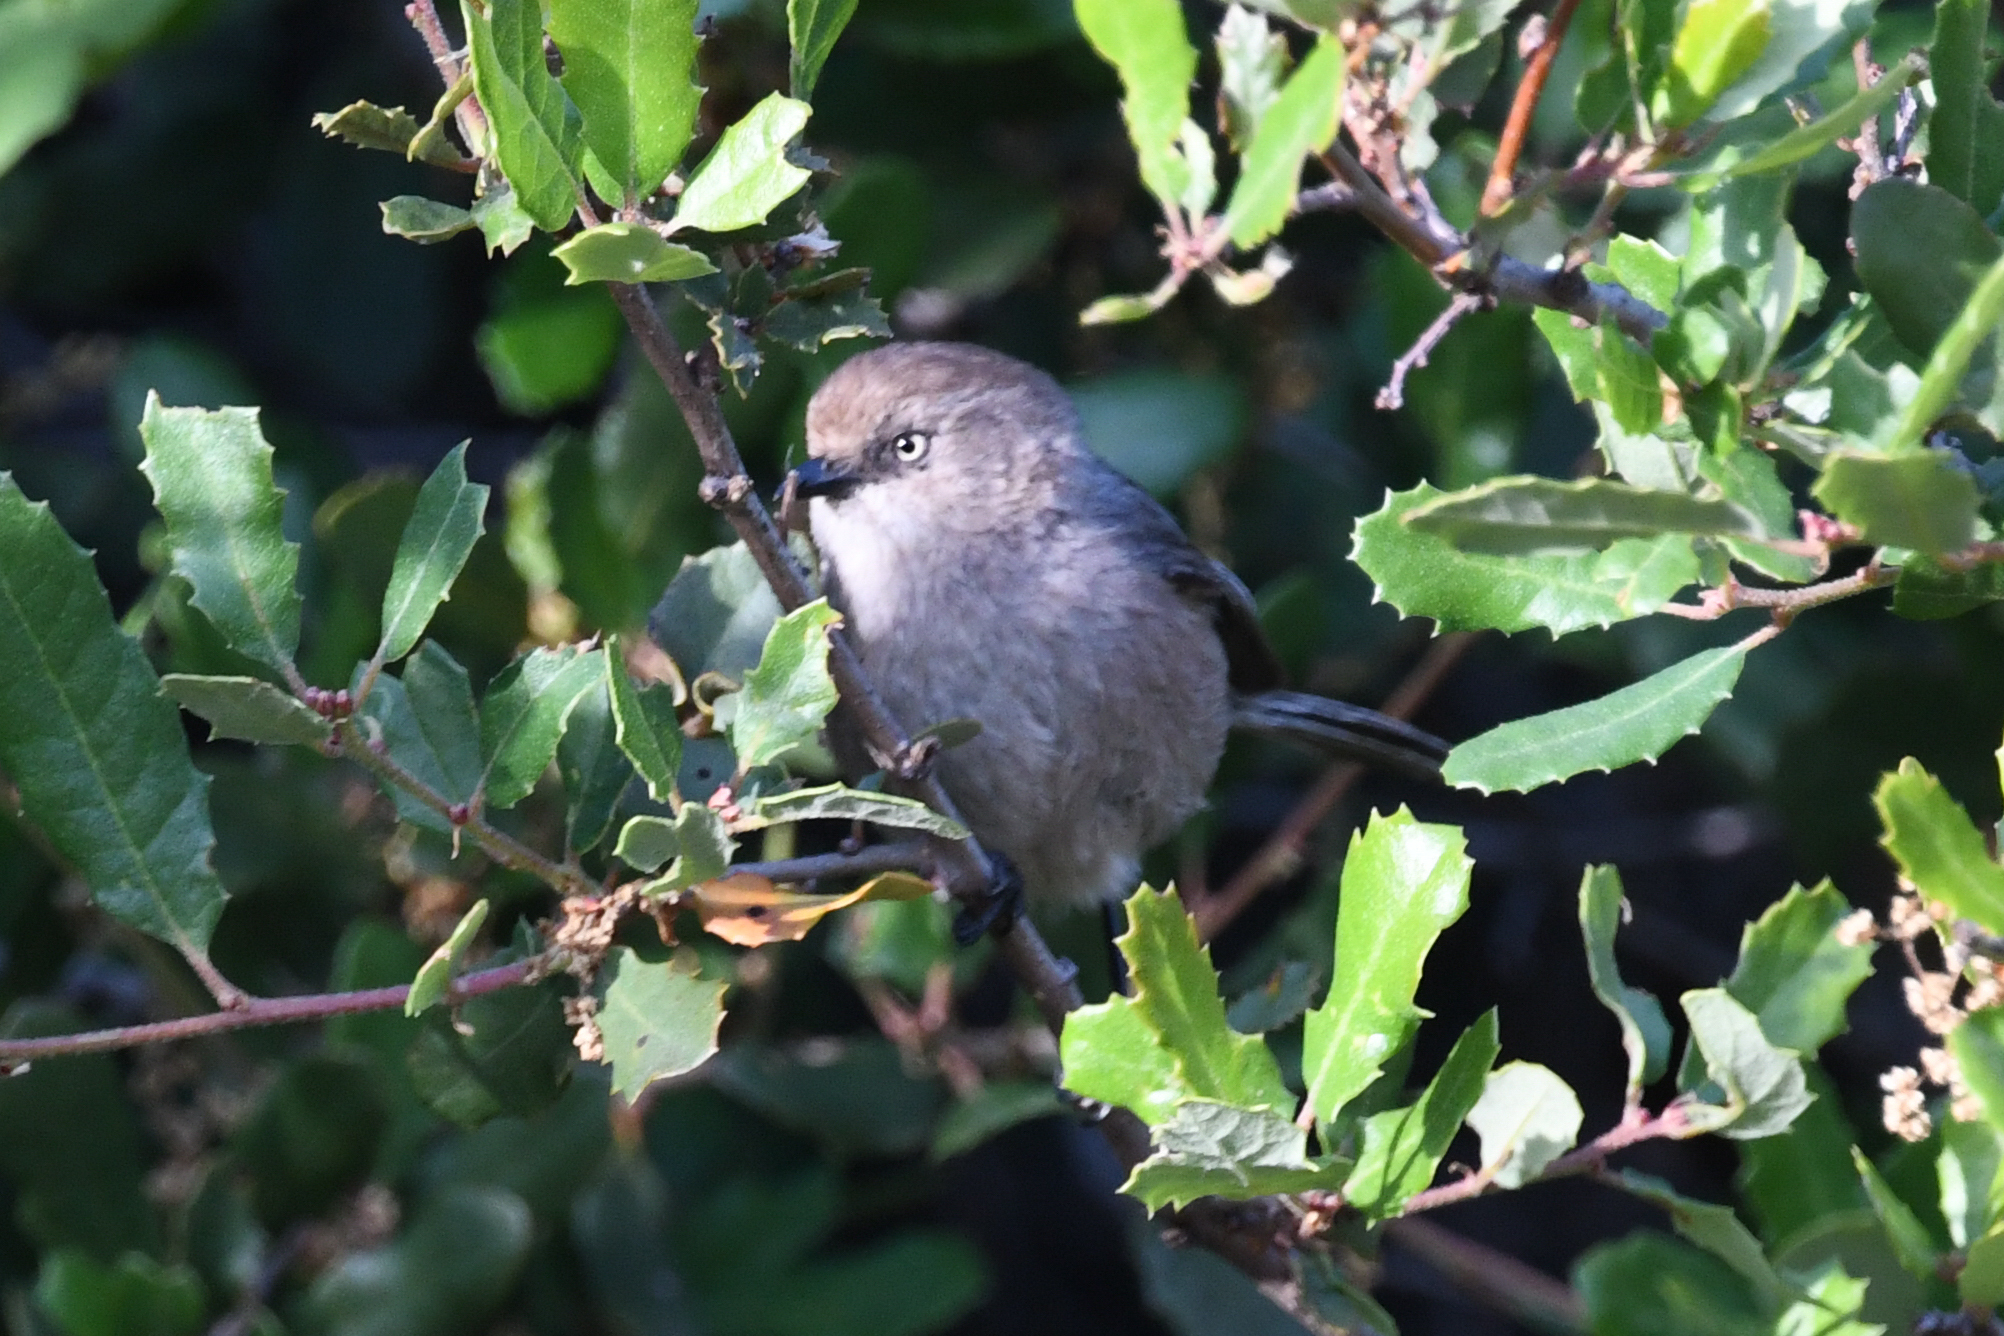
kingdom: Animalia
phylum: Chordata
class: Aves
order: Passeriformes
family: Aegithalidae
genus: Psaltriparus
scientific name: Psaltriparus minimus
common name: American bushtit
